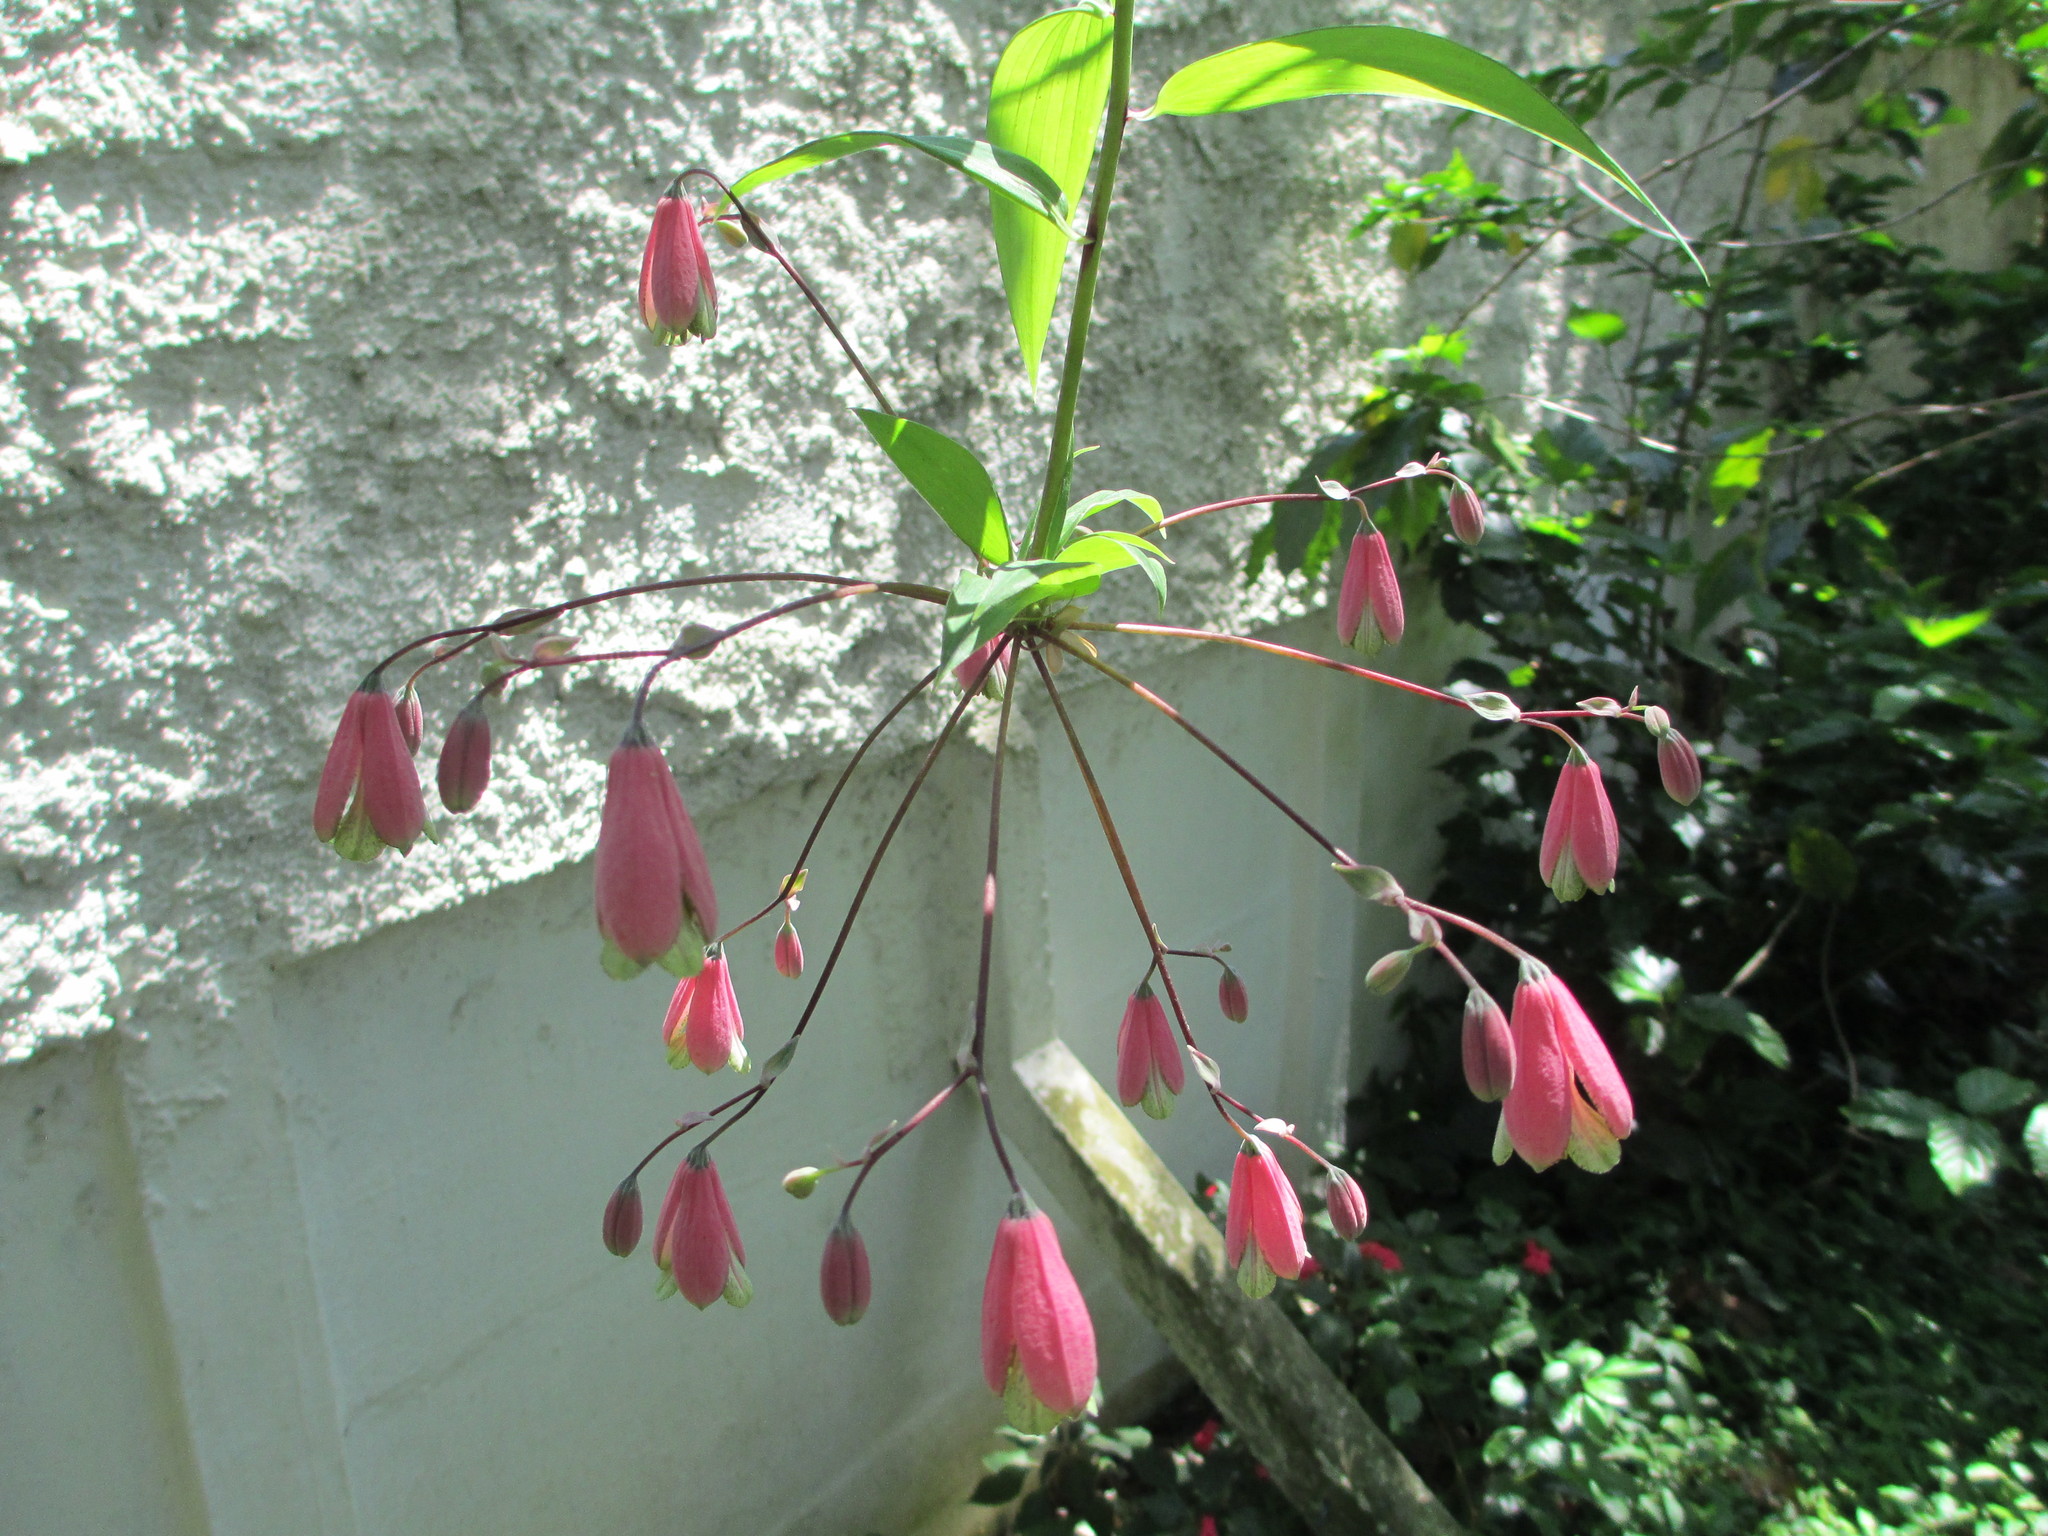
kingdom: Plantae
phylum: Tracheophyta
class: Liliopsida
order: Liliales
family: Alstroemeriaceae
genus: Bomarea
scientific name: Bomarea edulis
